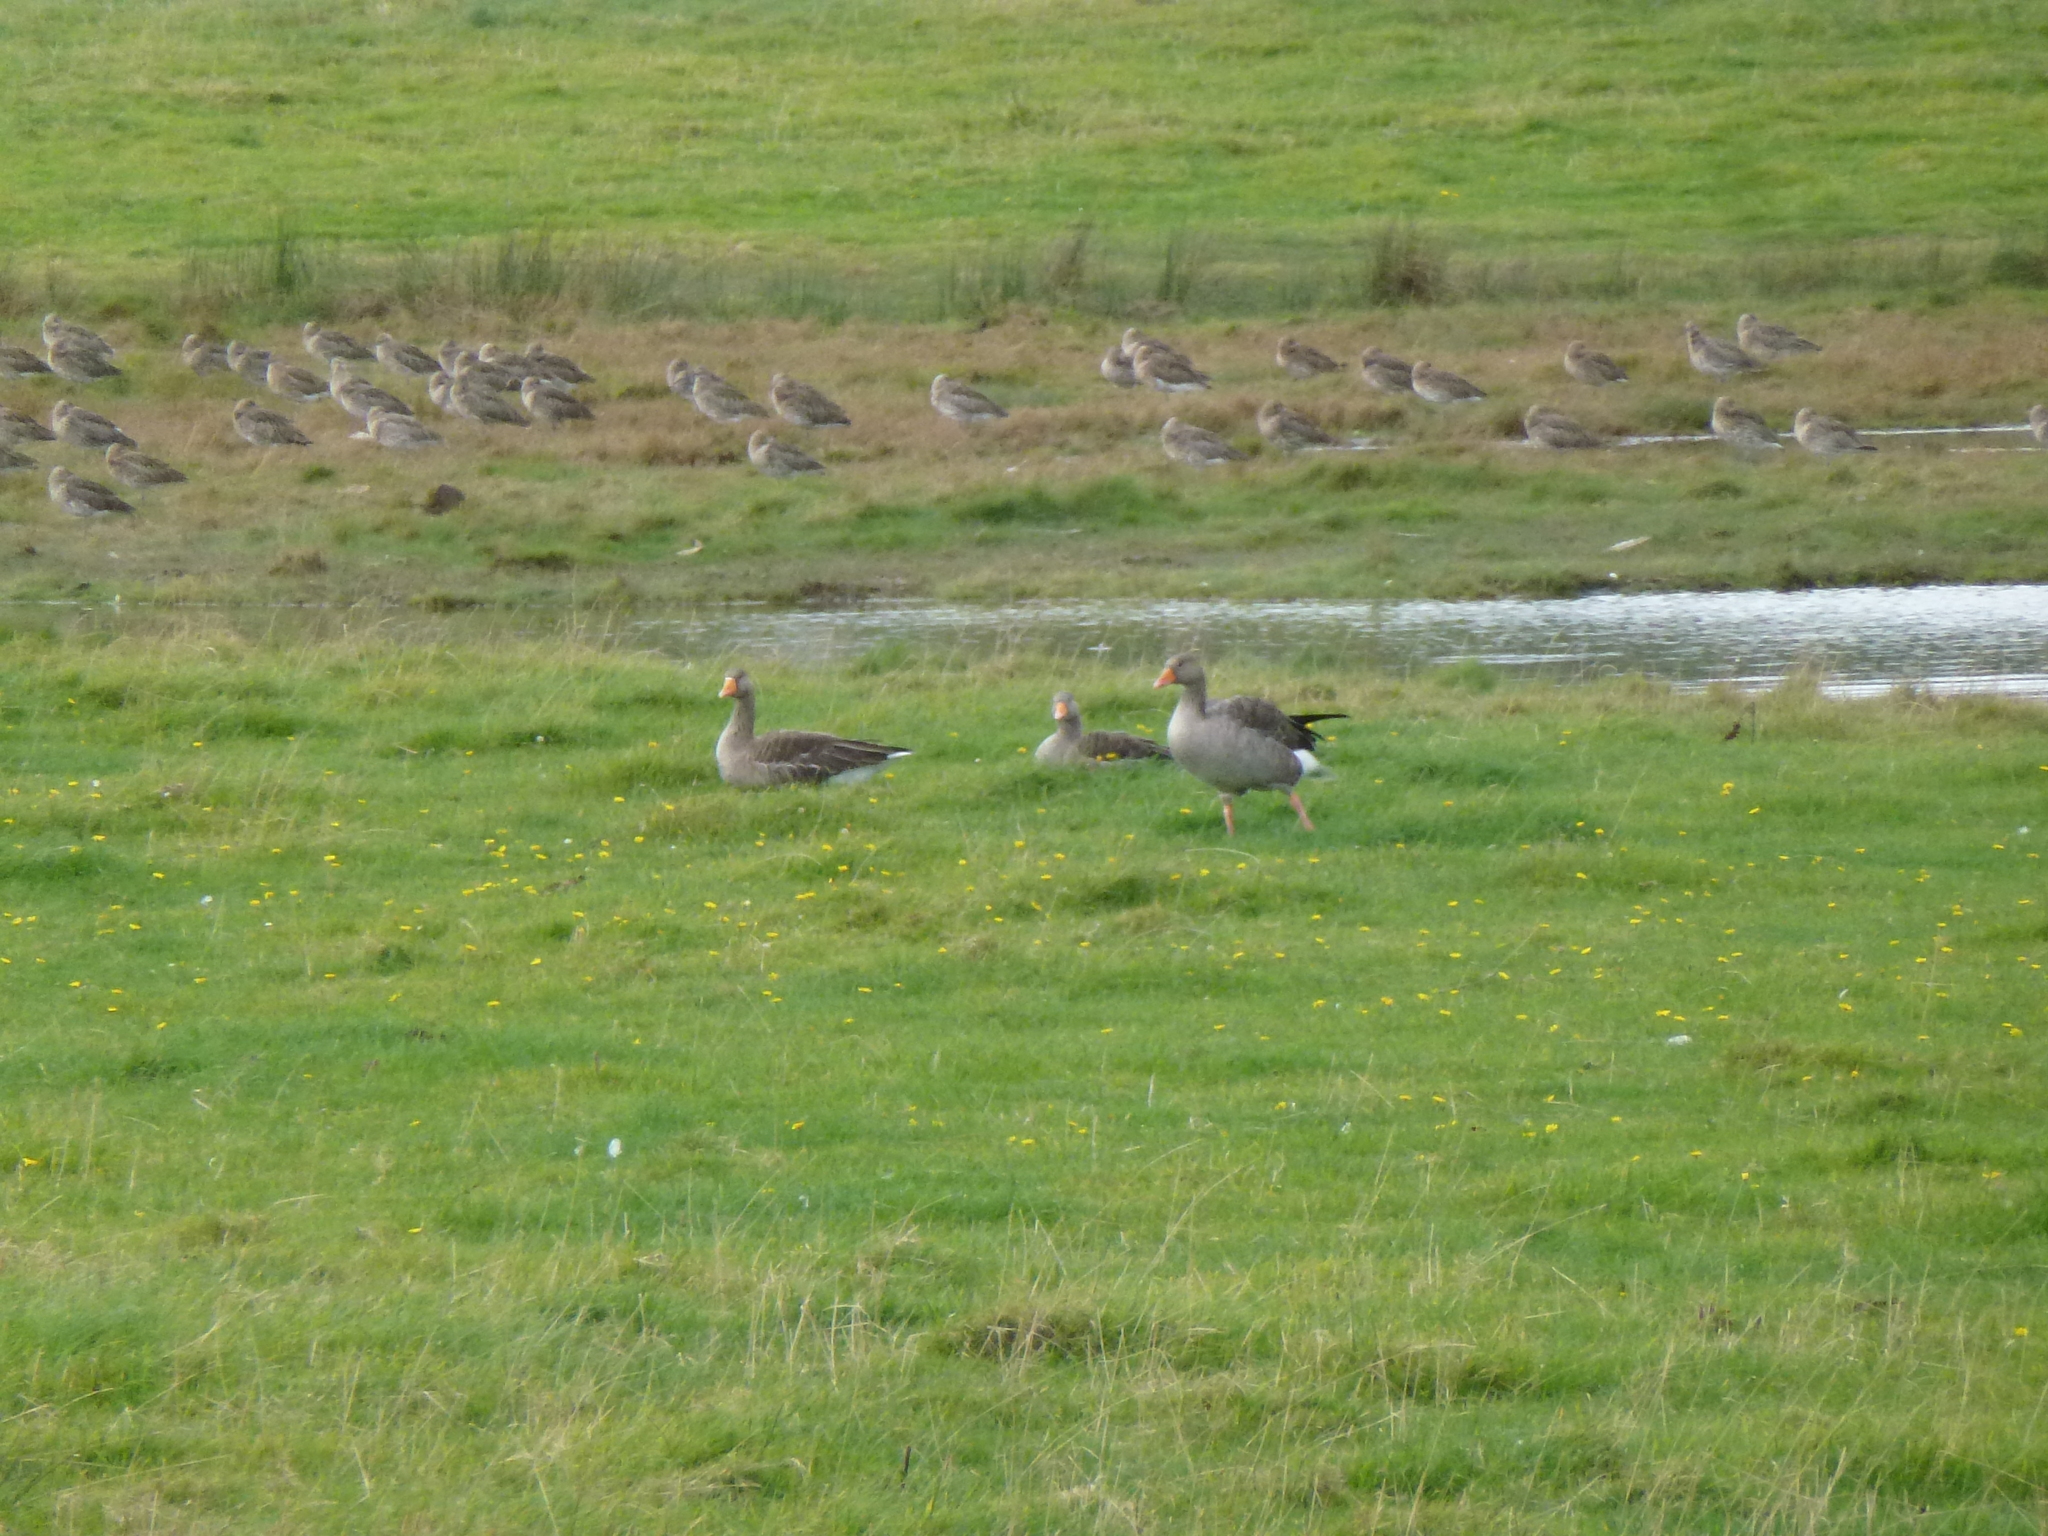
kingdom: Animalia
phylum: Chordata
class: Aves
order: Anseriformes
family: Anatidae
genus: Anser
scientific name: Anser anser
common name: Greylag goose
